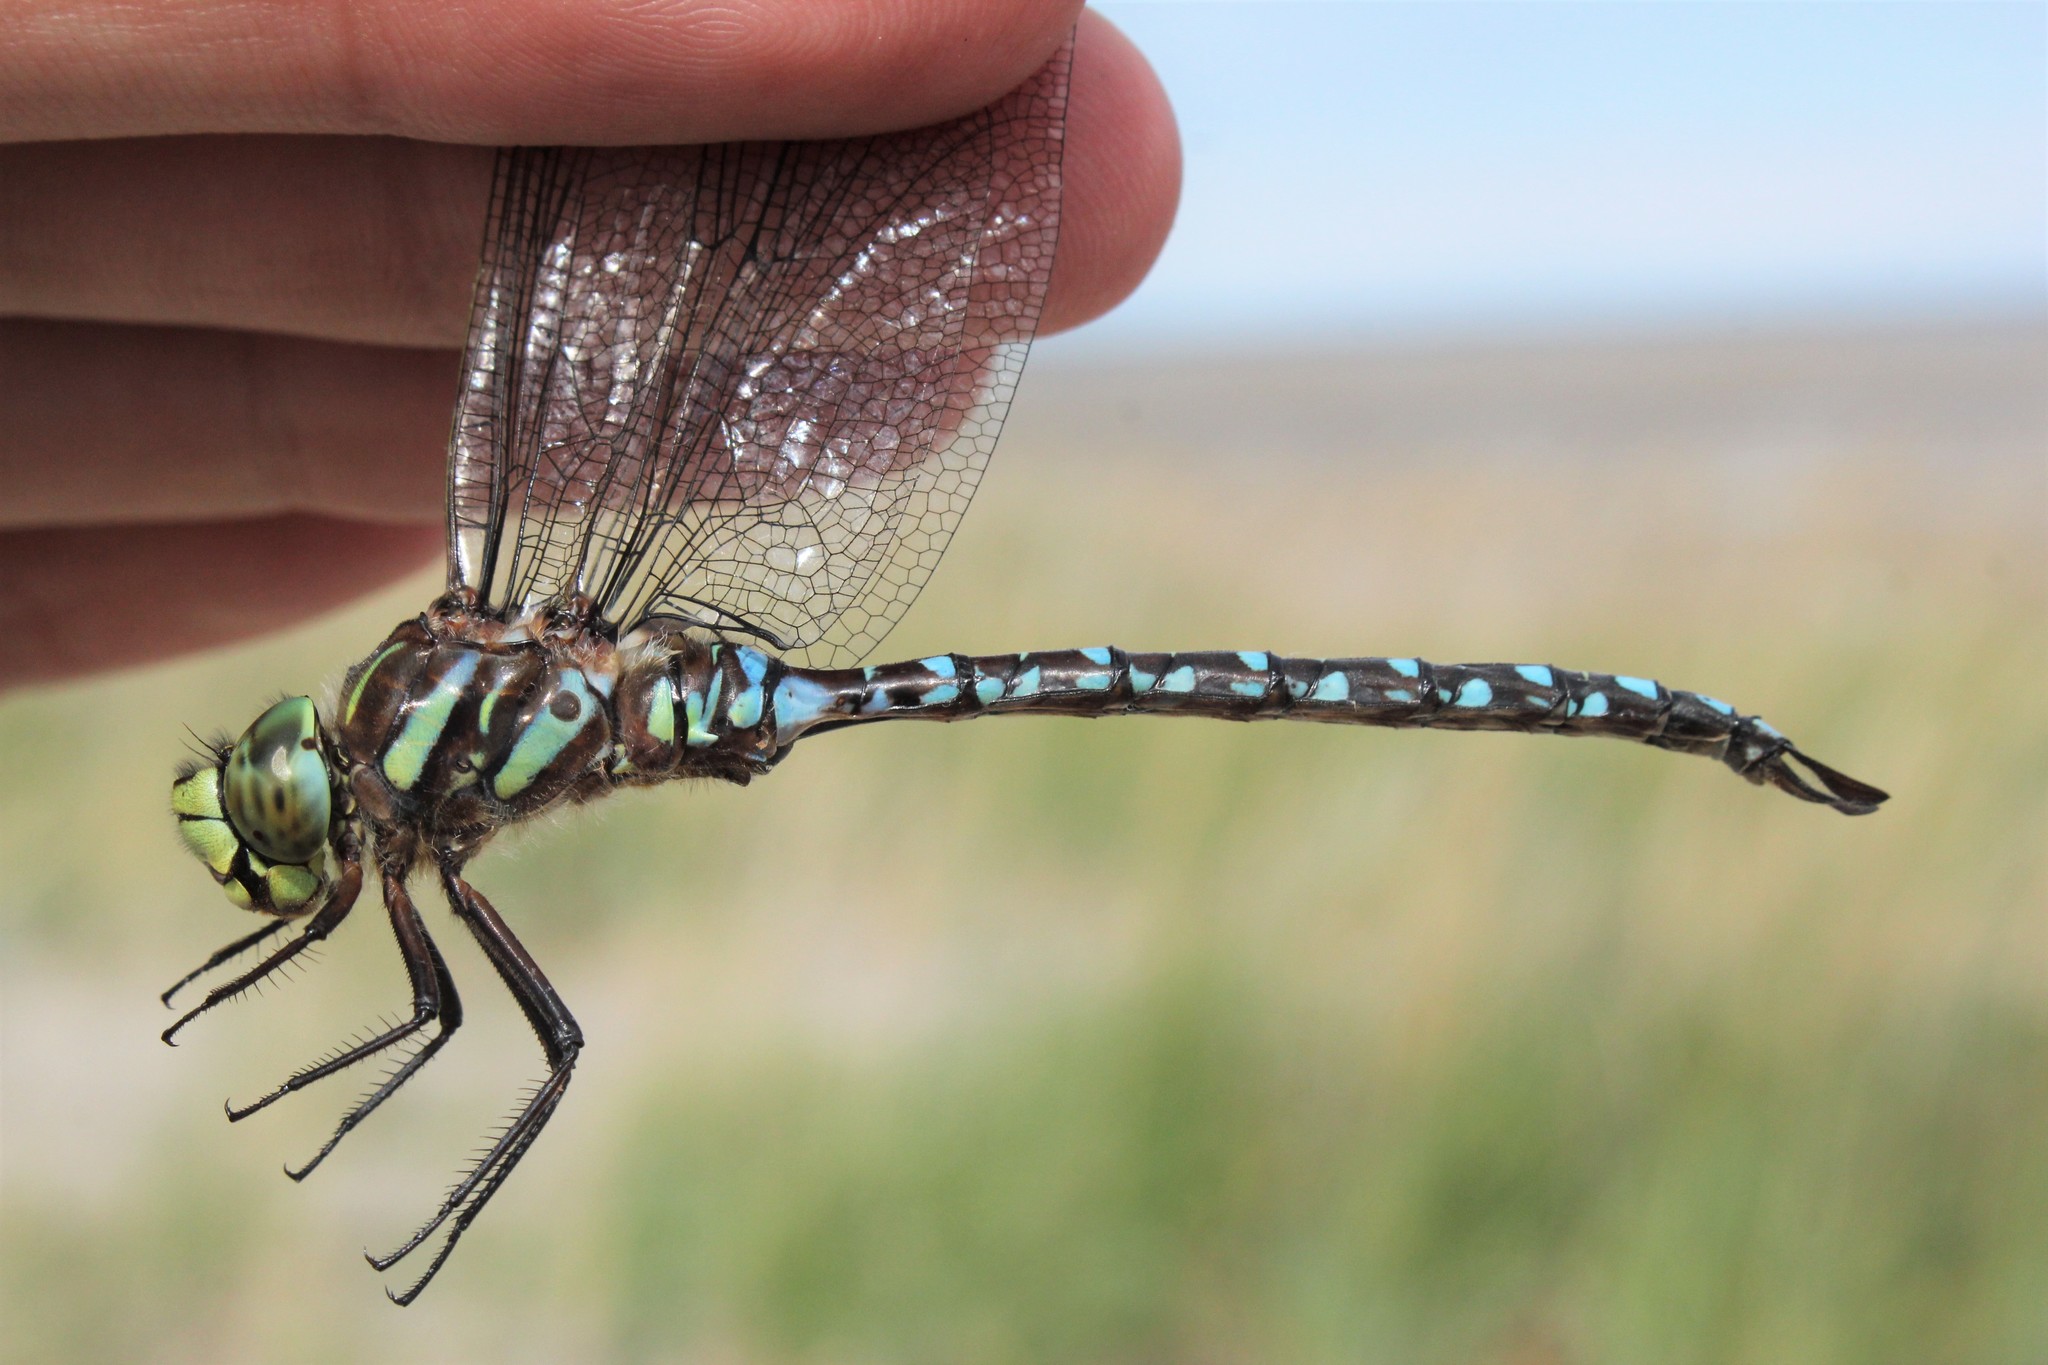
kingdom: Animalia
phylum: Arthropoda
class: Insecta
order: Odonata
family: Aeshnidae
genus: Aeshna
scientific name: Aeshna juncea
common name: Moorland hawker
